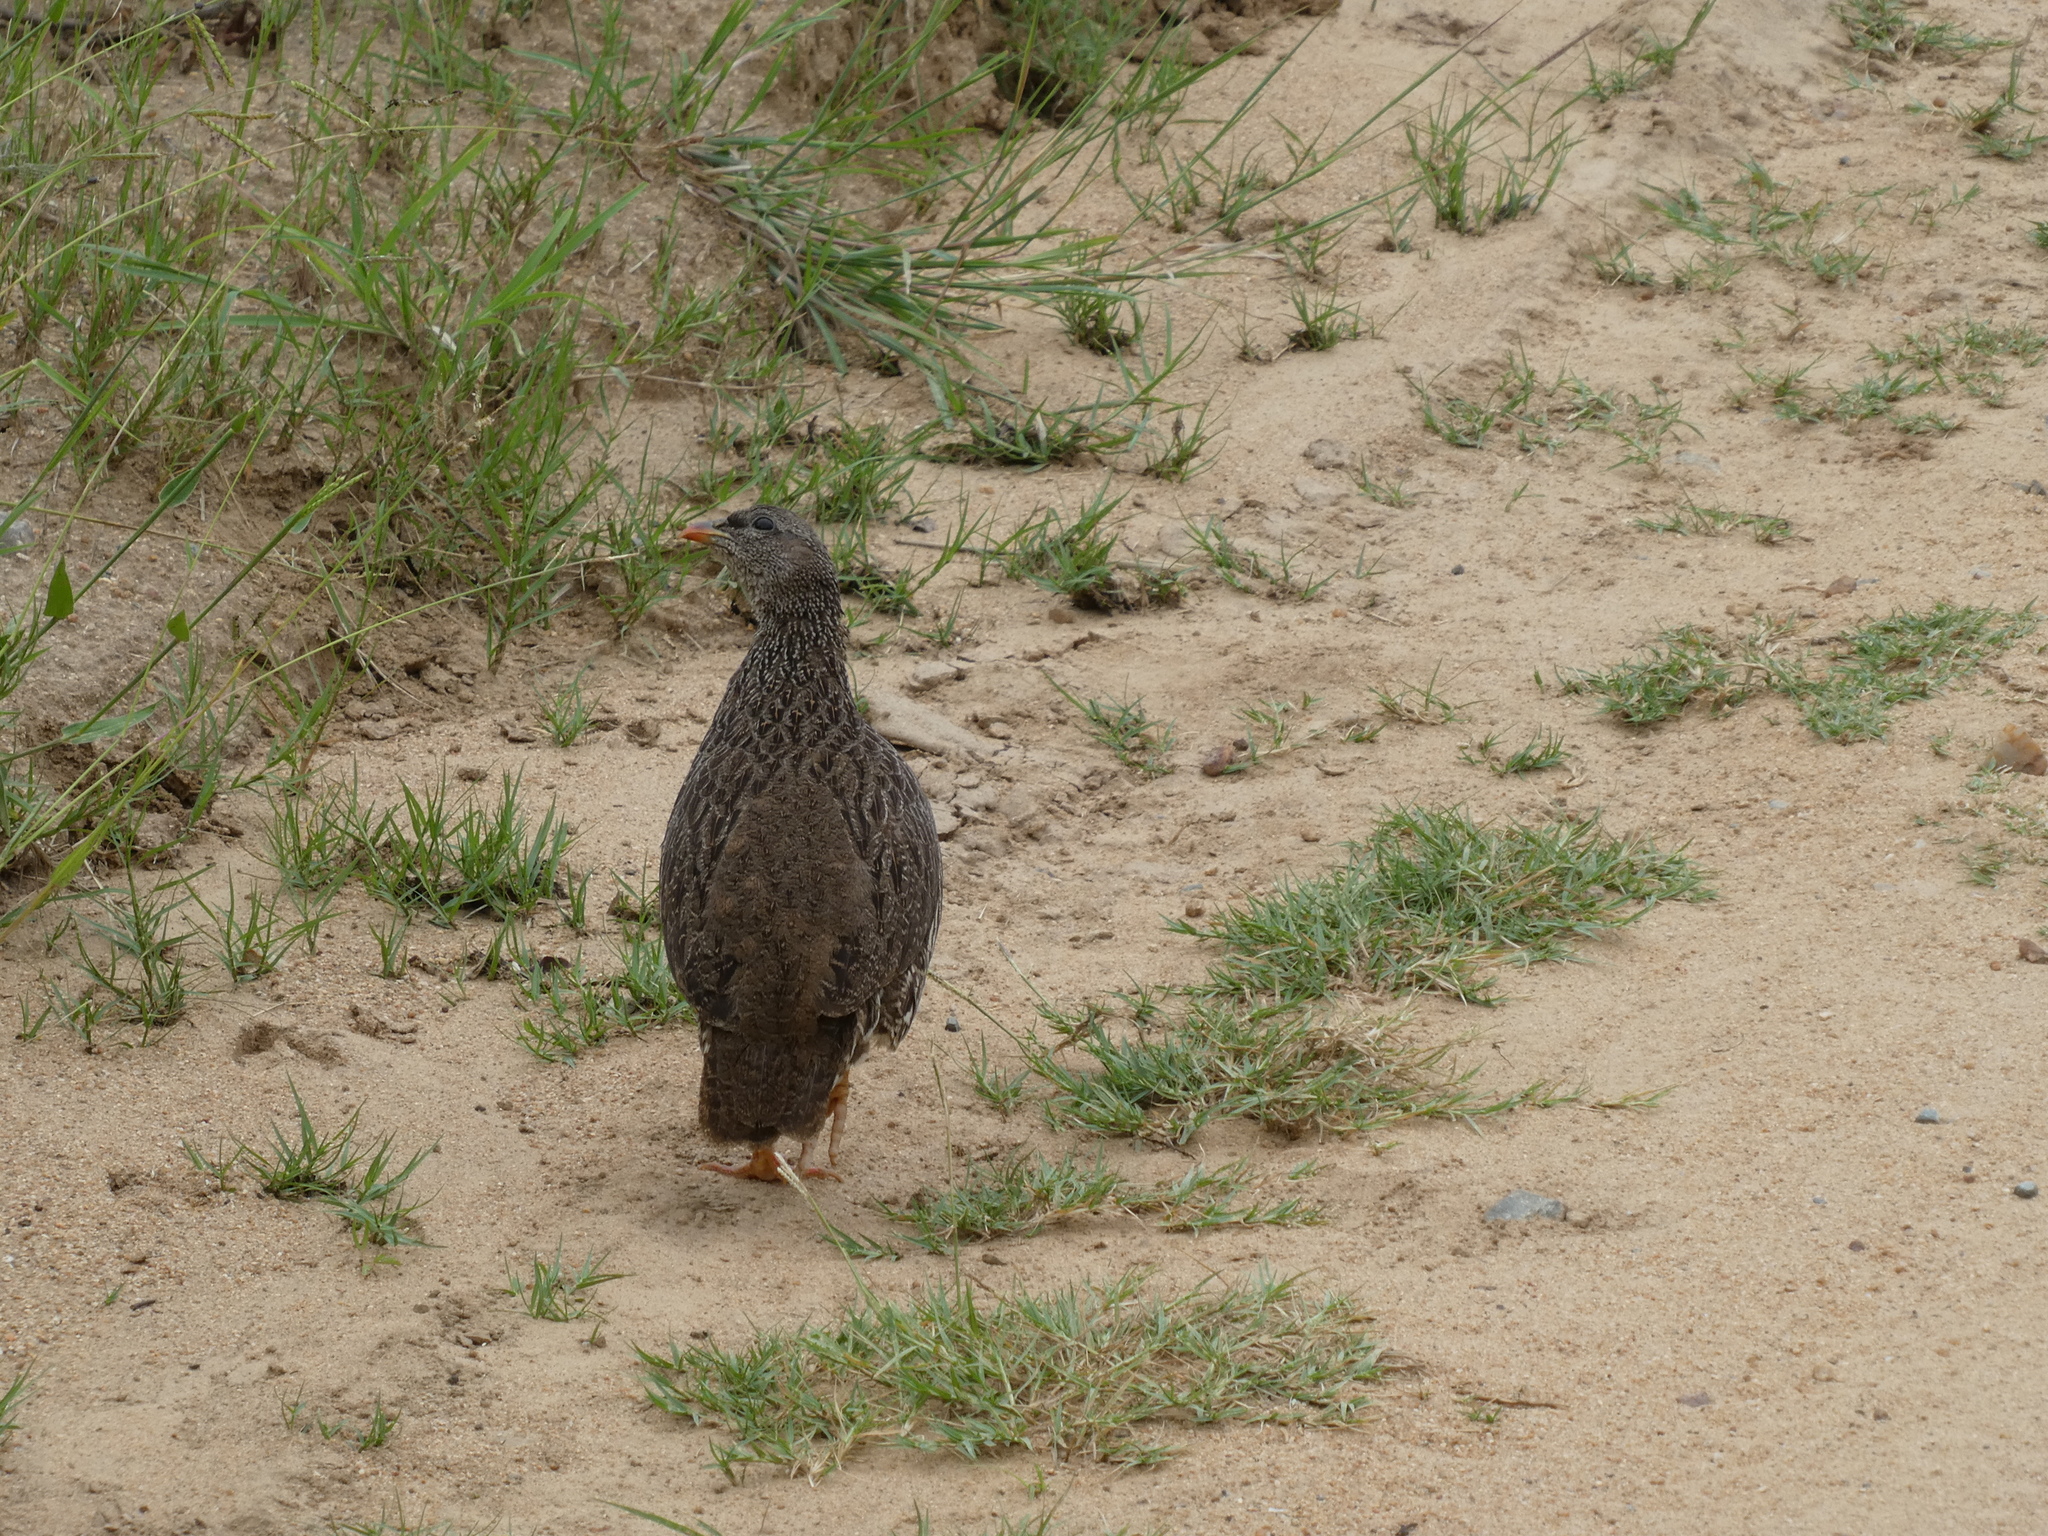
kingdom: Animalia
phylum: Chordata
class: Aves
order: Galliformes
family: Phasianidae
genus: Pternistis
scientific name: Pternistis natalensis
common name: Natal spurfowl
